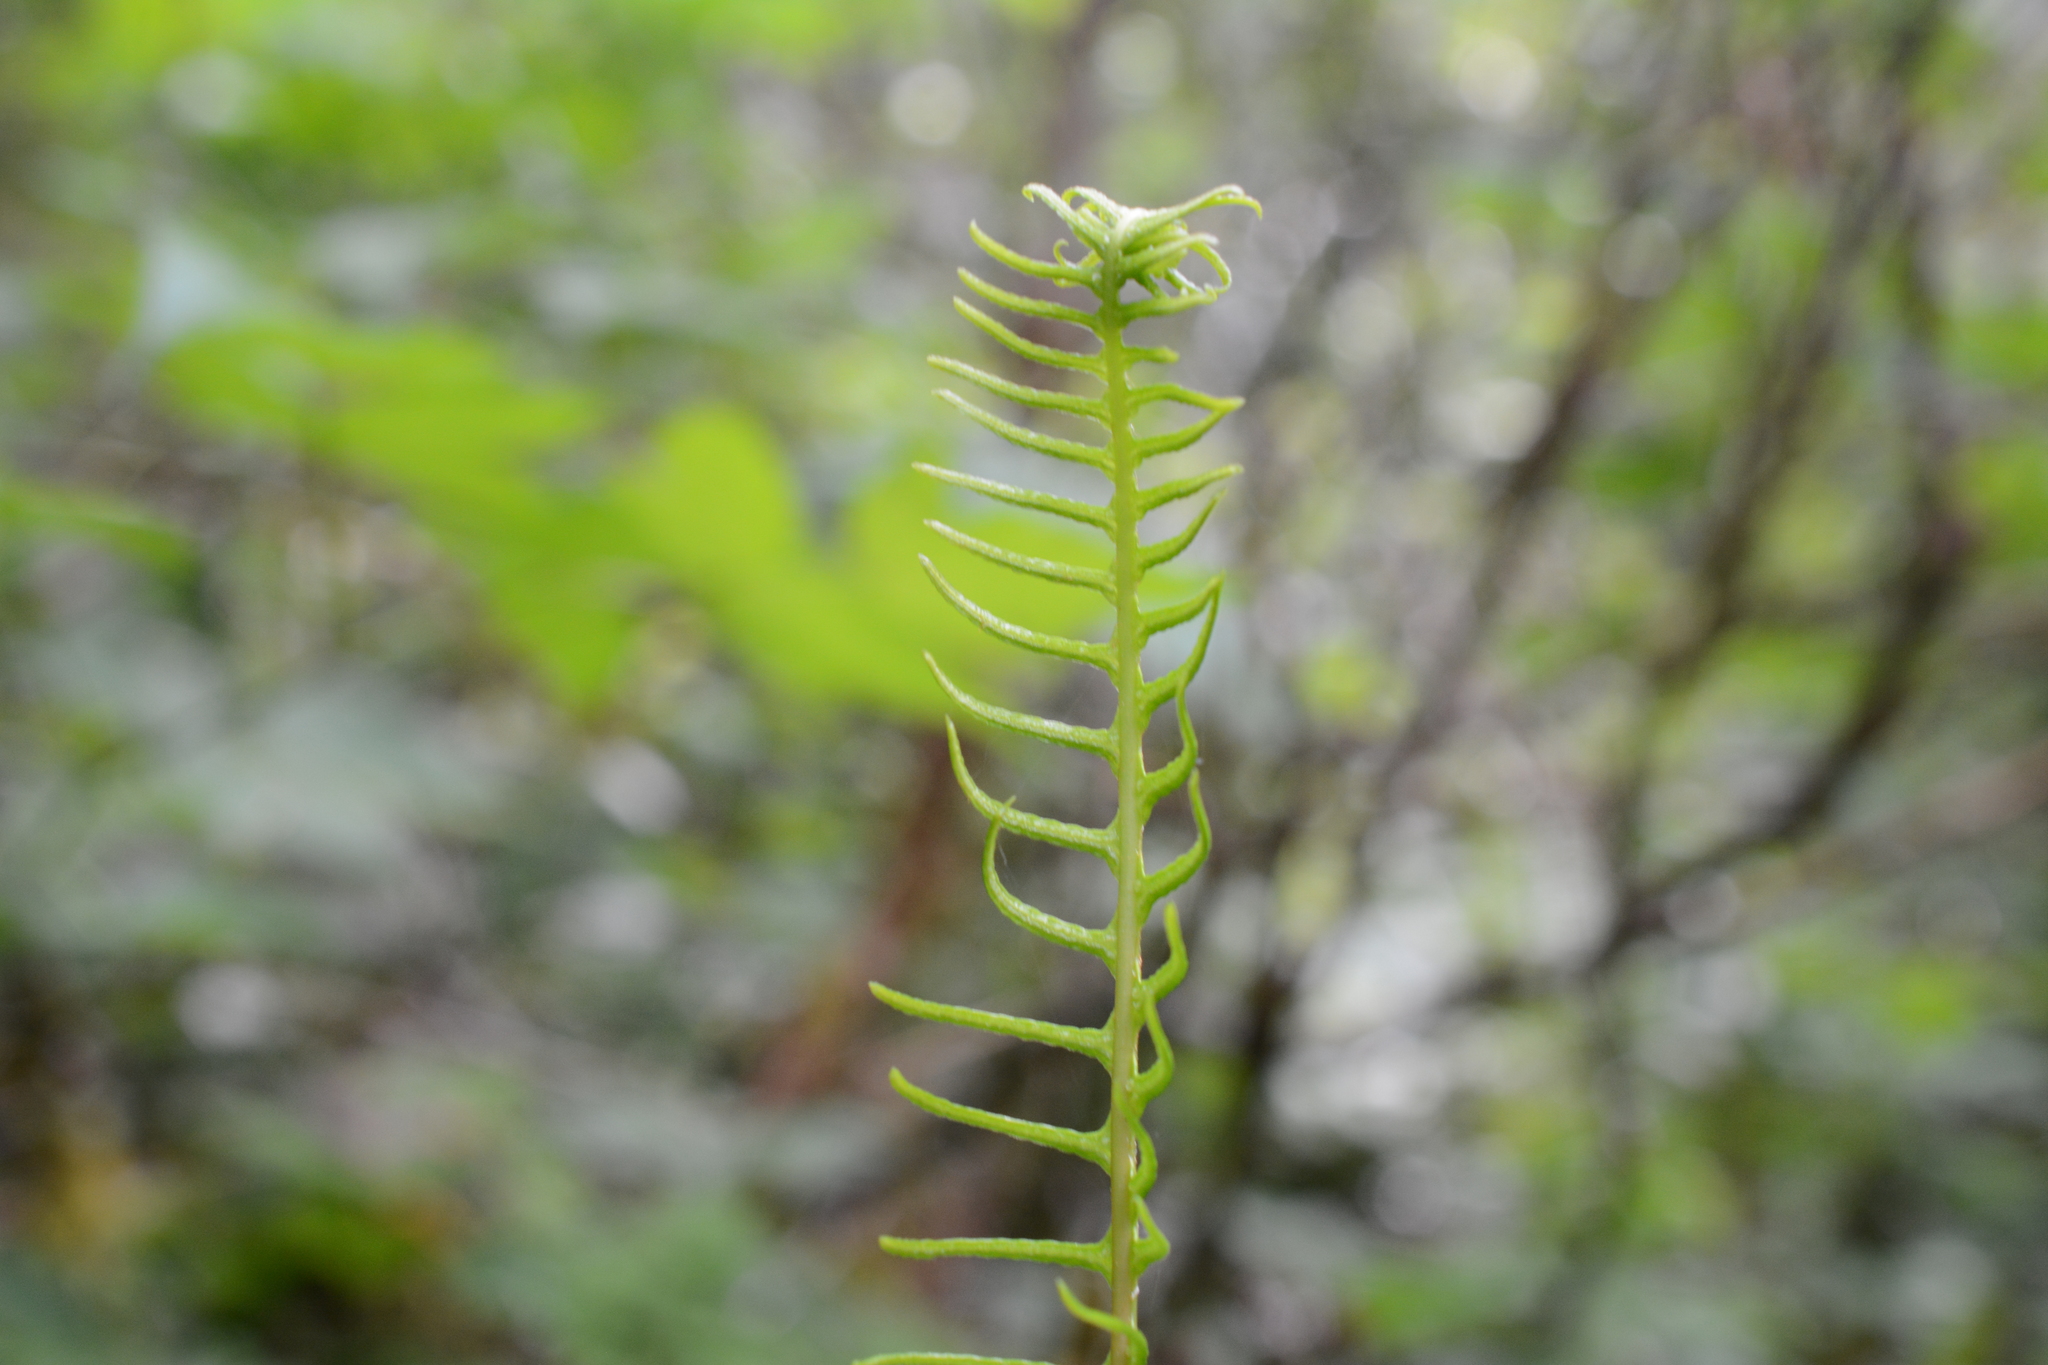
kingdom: Plantae
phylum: Tracheophyta
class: Polypodiopsida
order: Polypodiales
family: Blechnaceae
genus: Struthiopteris
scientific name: Struthiopteris spicant
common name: Deer fern
